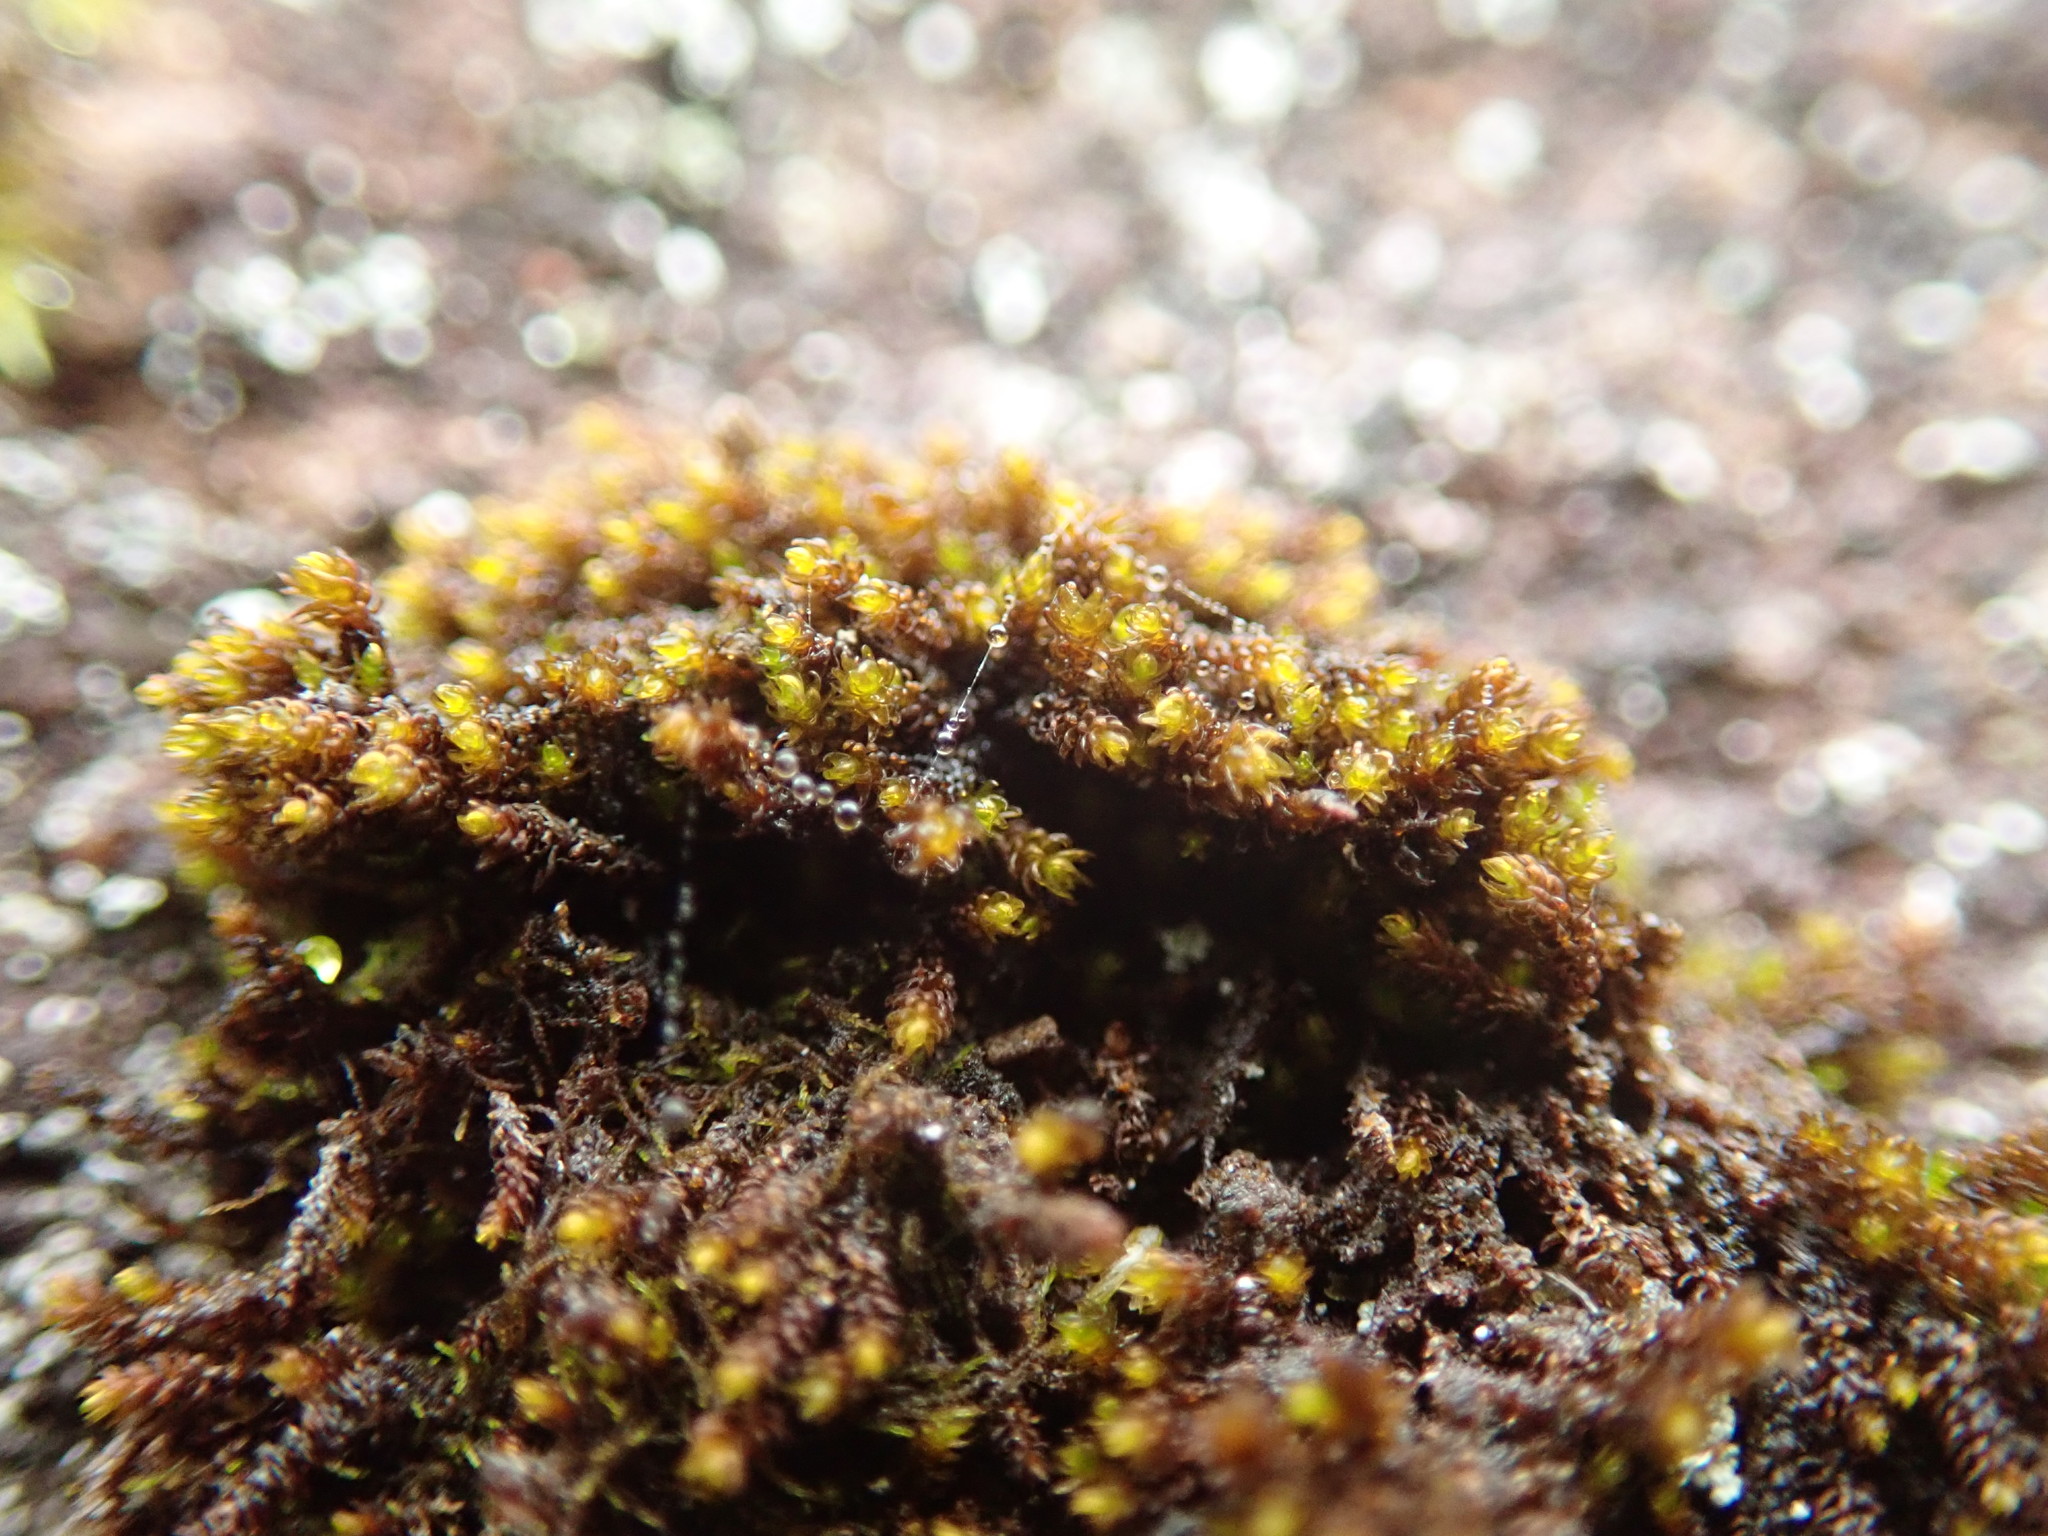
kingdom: Plantae
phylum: Bryophyta
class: Andreaeopsida
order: Andreaeales
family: Andreaeaceae
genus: Andreaea
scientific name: Andreaea rupestris
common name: Black rock moss
